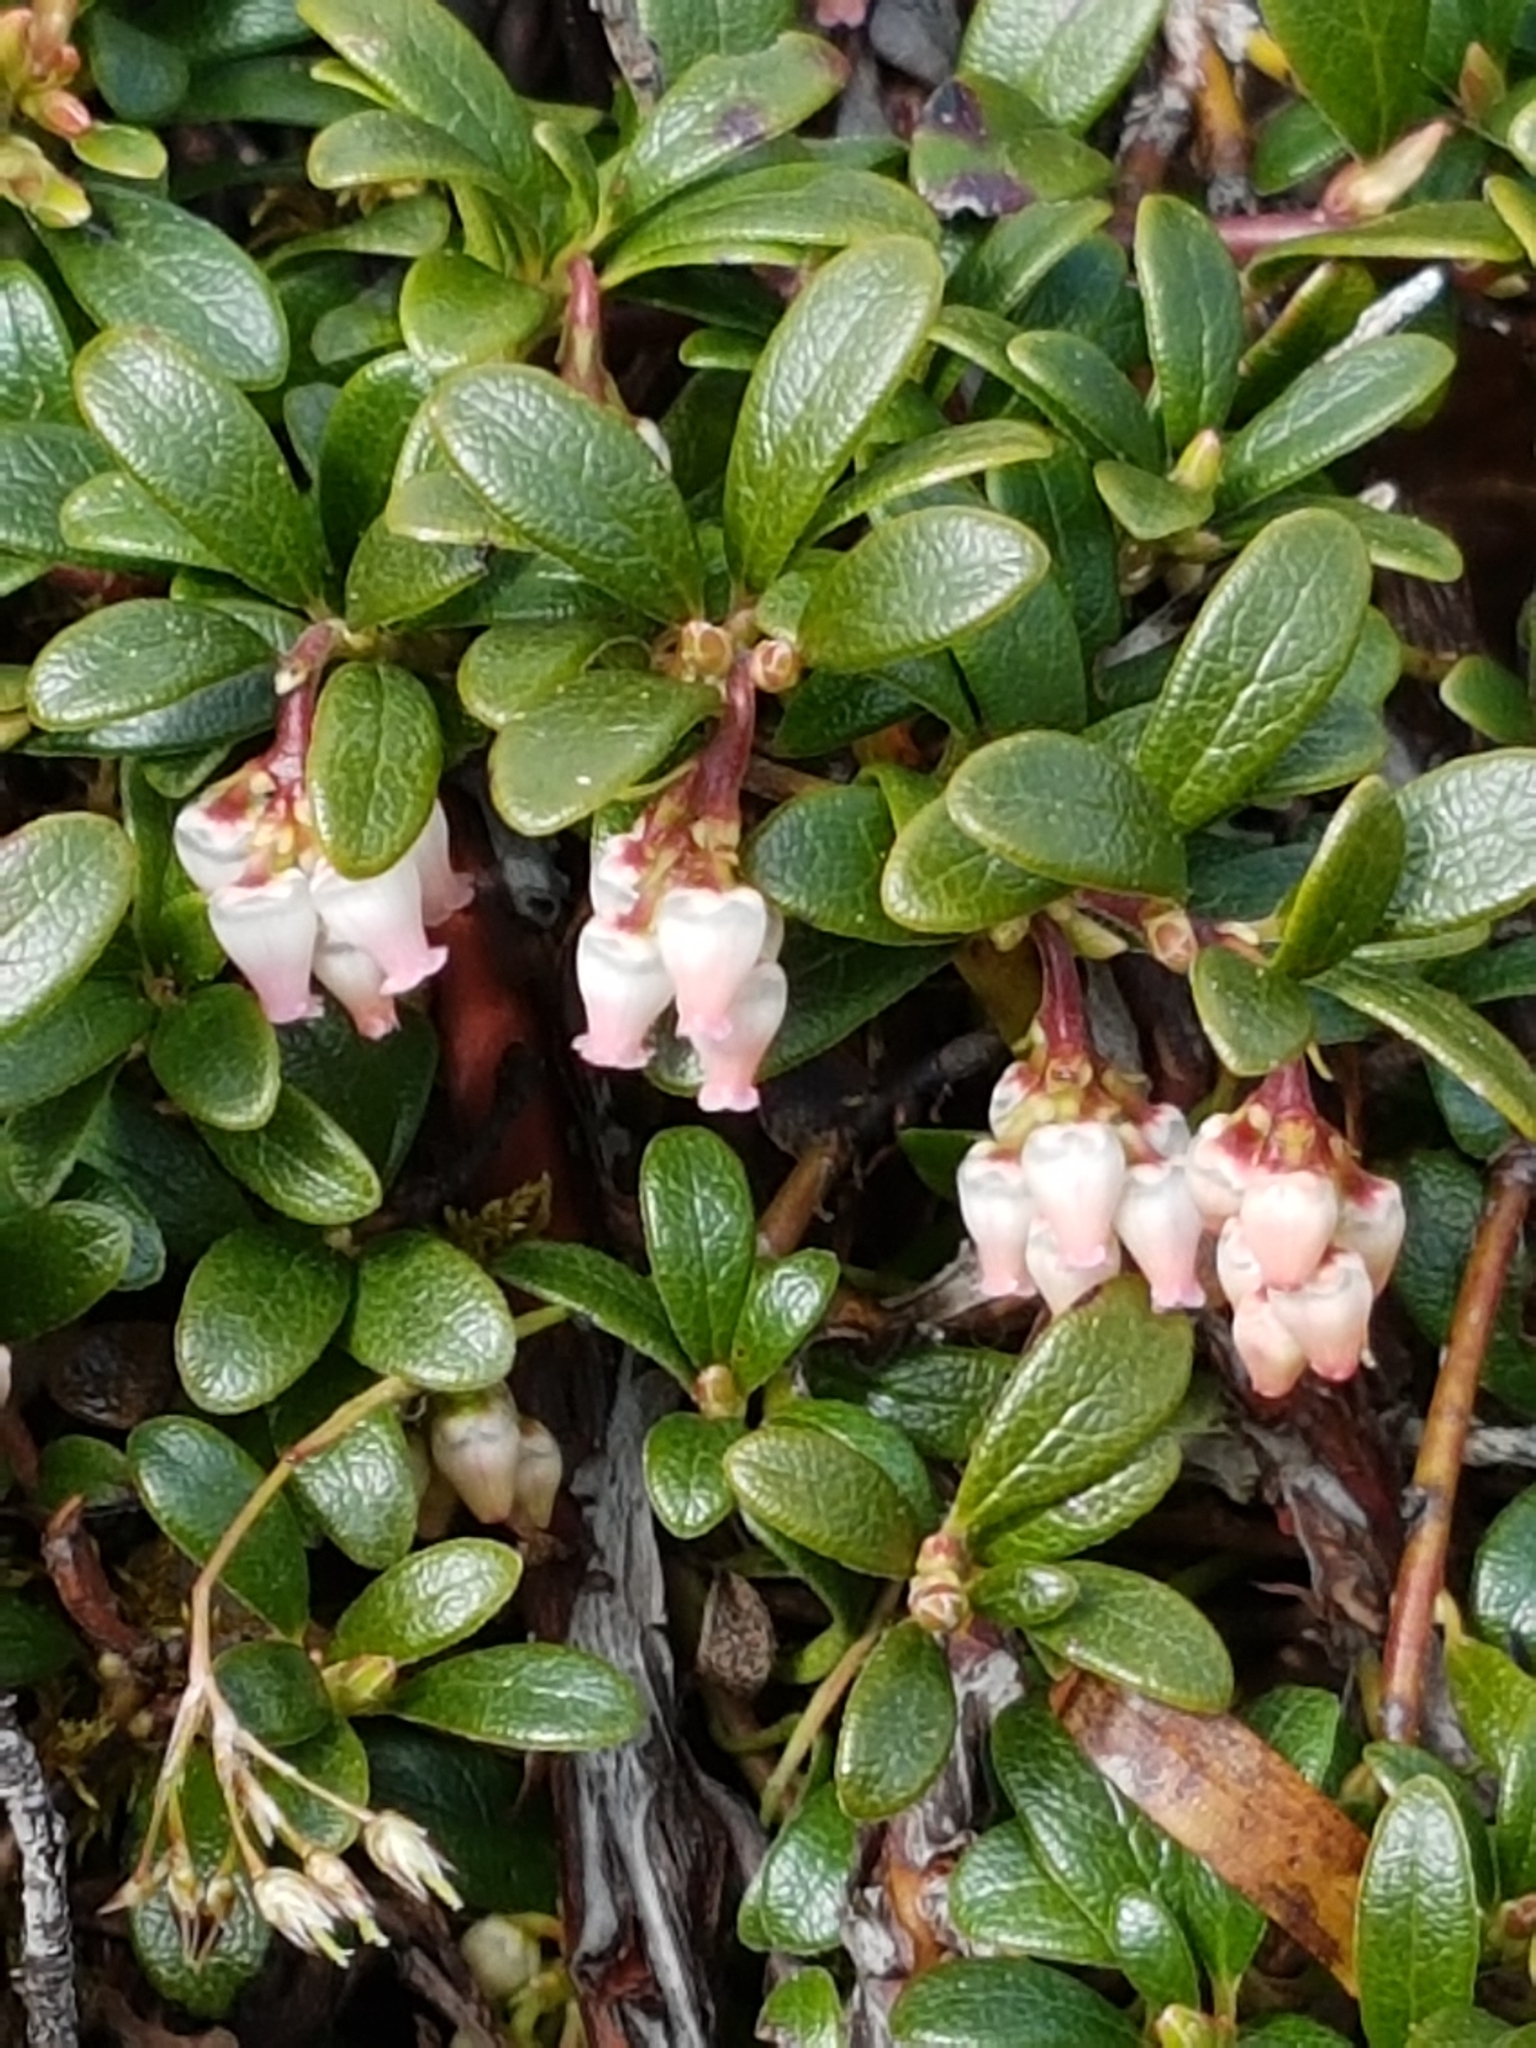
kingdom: Plantae
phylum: Tracheophyta
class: Magnoliopsida
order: Ericales
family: Ericaceae
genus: Arctostaphylos
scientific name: Arctostaphylos uva-ursi
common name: Bearberry
